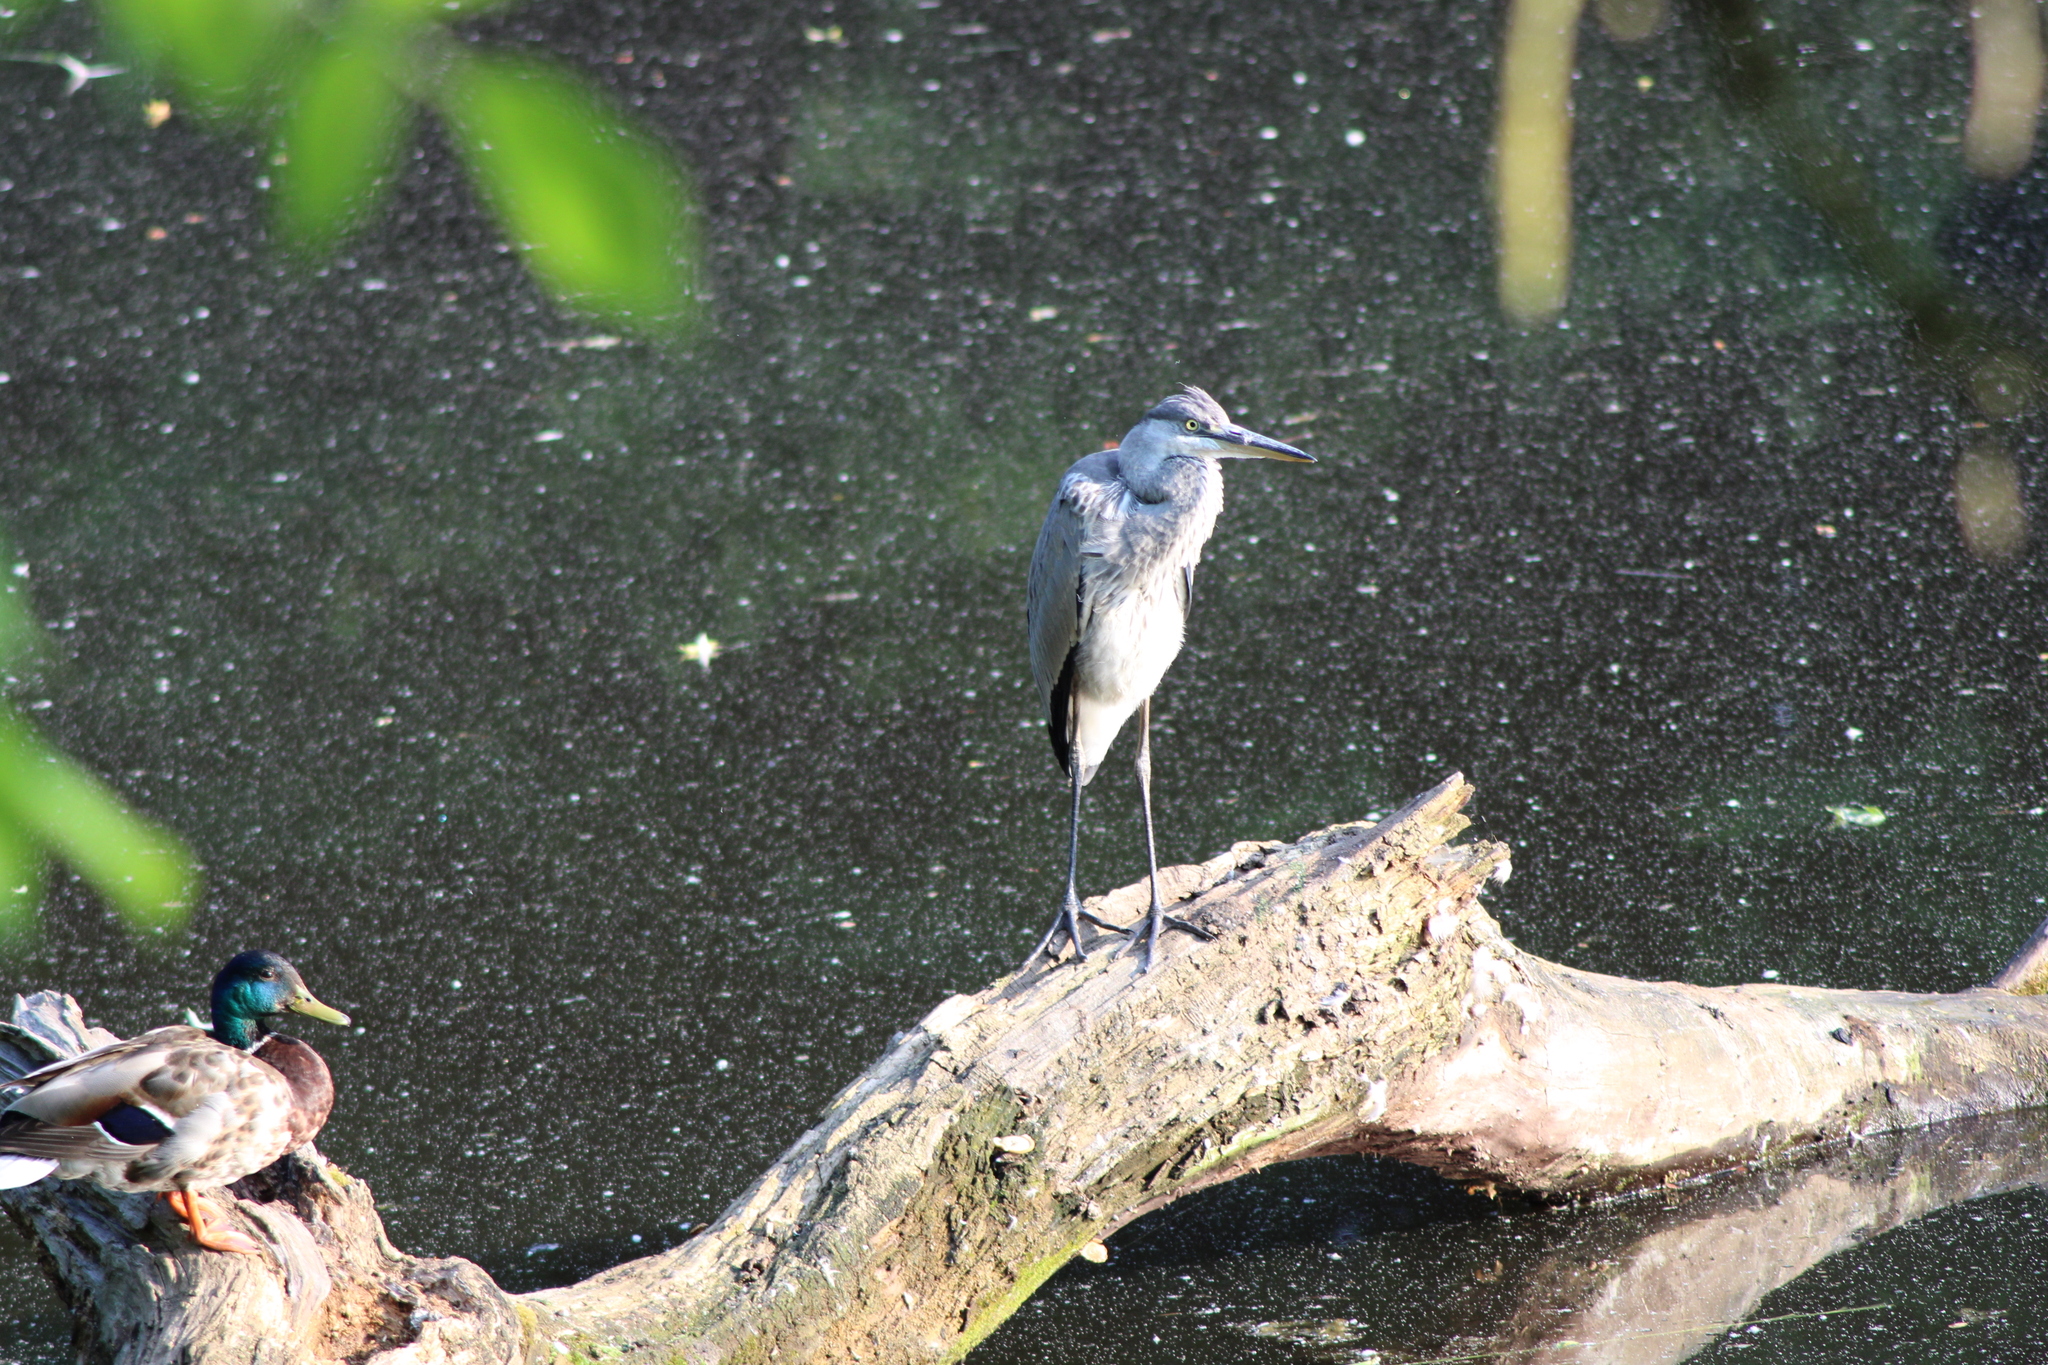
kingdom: Animalia
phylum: Chordata
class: Aves
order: Pelecaniformes
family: Ardeidae
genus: Ardea
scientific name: Ardea cinerea
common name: Grey heron
